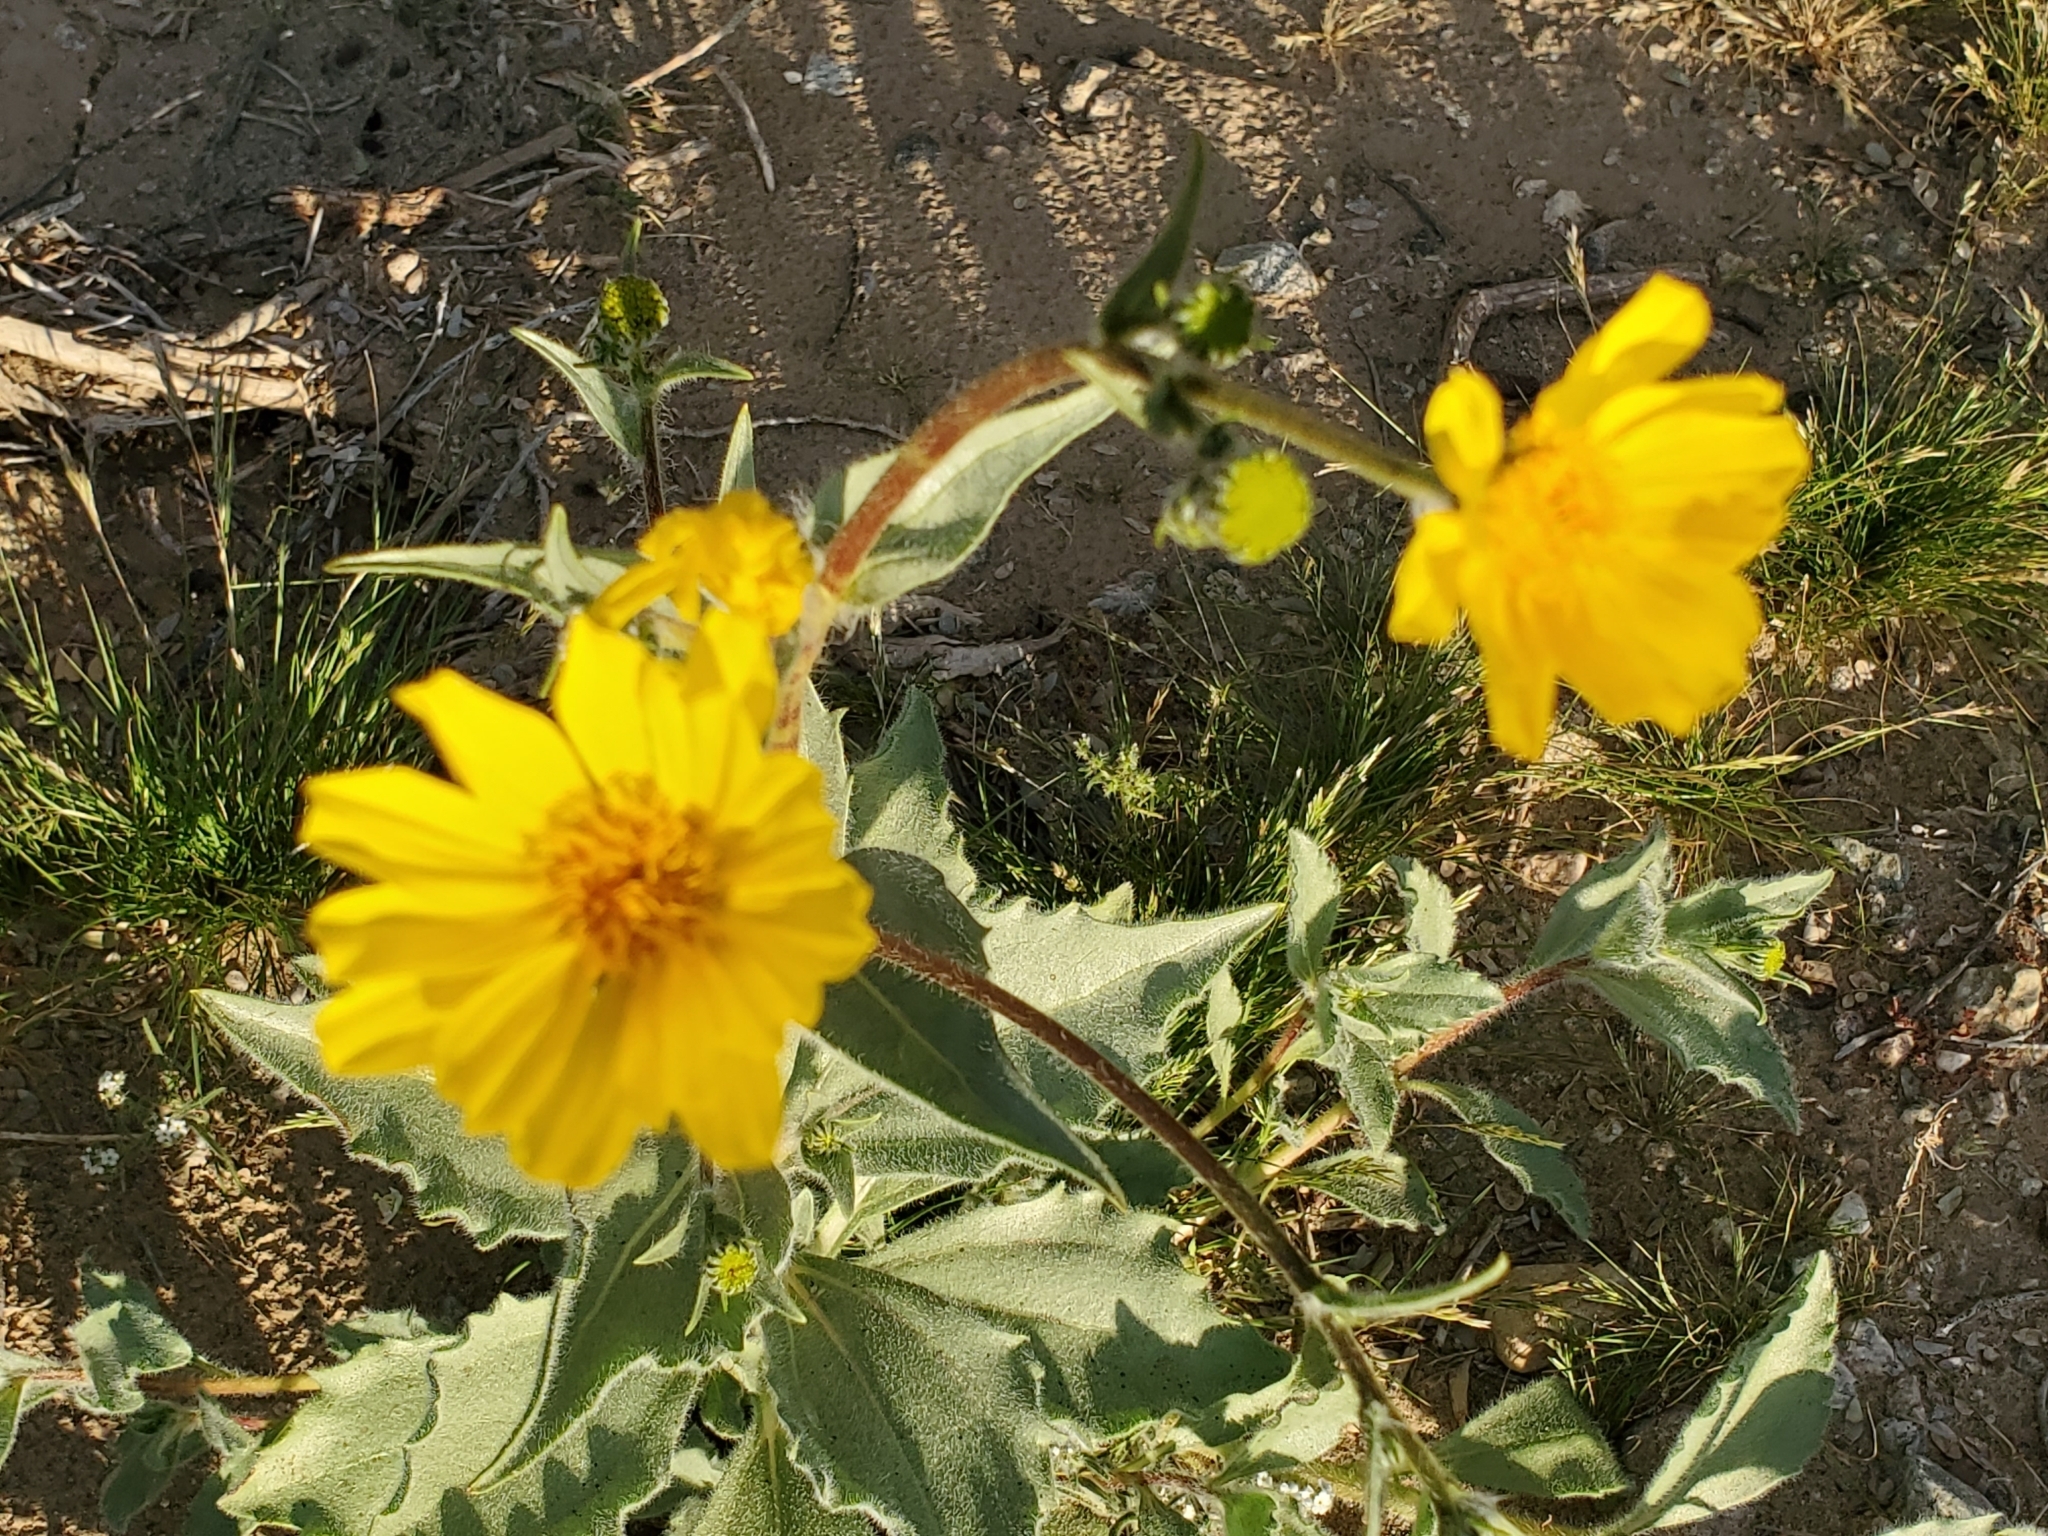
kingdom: Plantae
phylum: Tracheophyta
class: Magnoliopsida
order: Asterales
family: Asteraceae
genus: Geraea
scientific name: Geraea canescens
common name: Desert-gold
